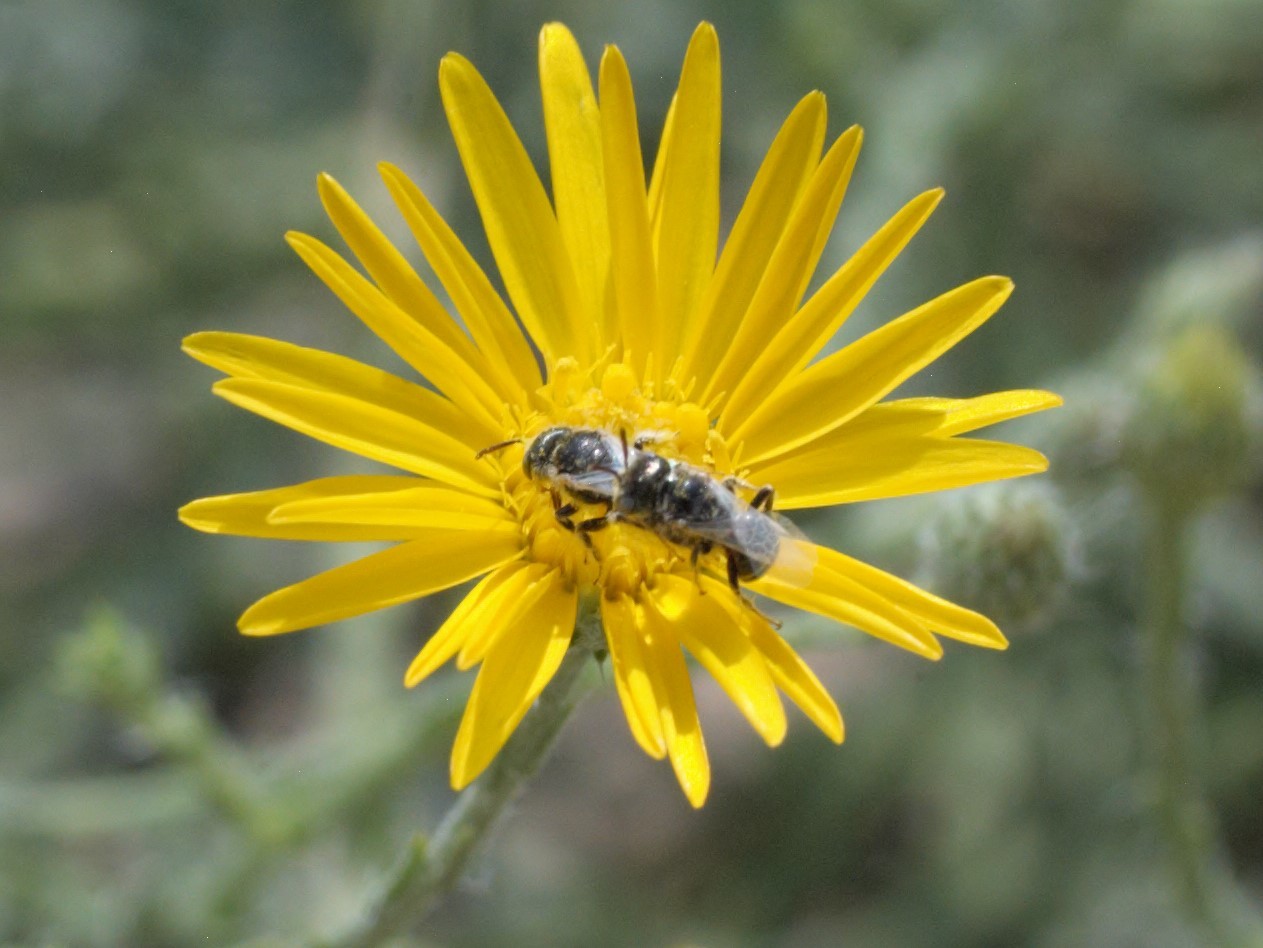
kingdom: Animalia
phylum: Arthropoda
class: Insecta
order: Hymenoptera
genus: Pentaperdita
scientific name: Pentaperdita
